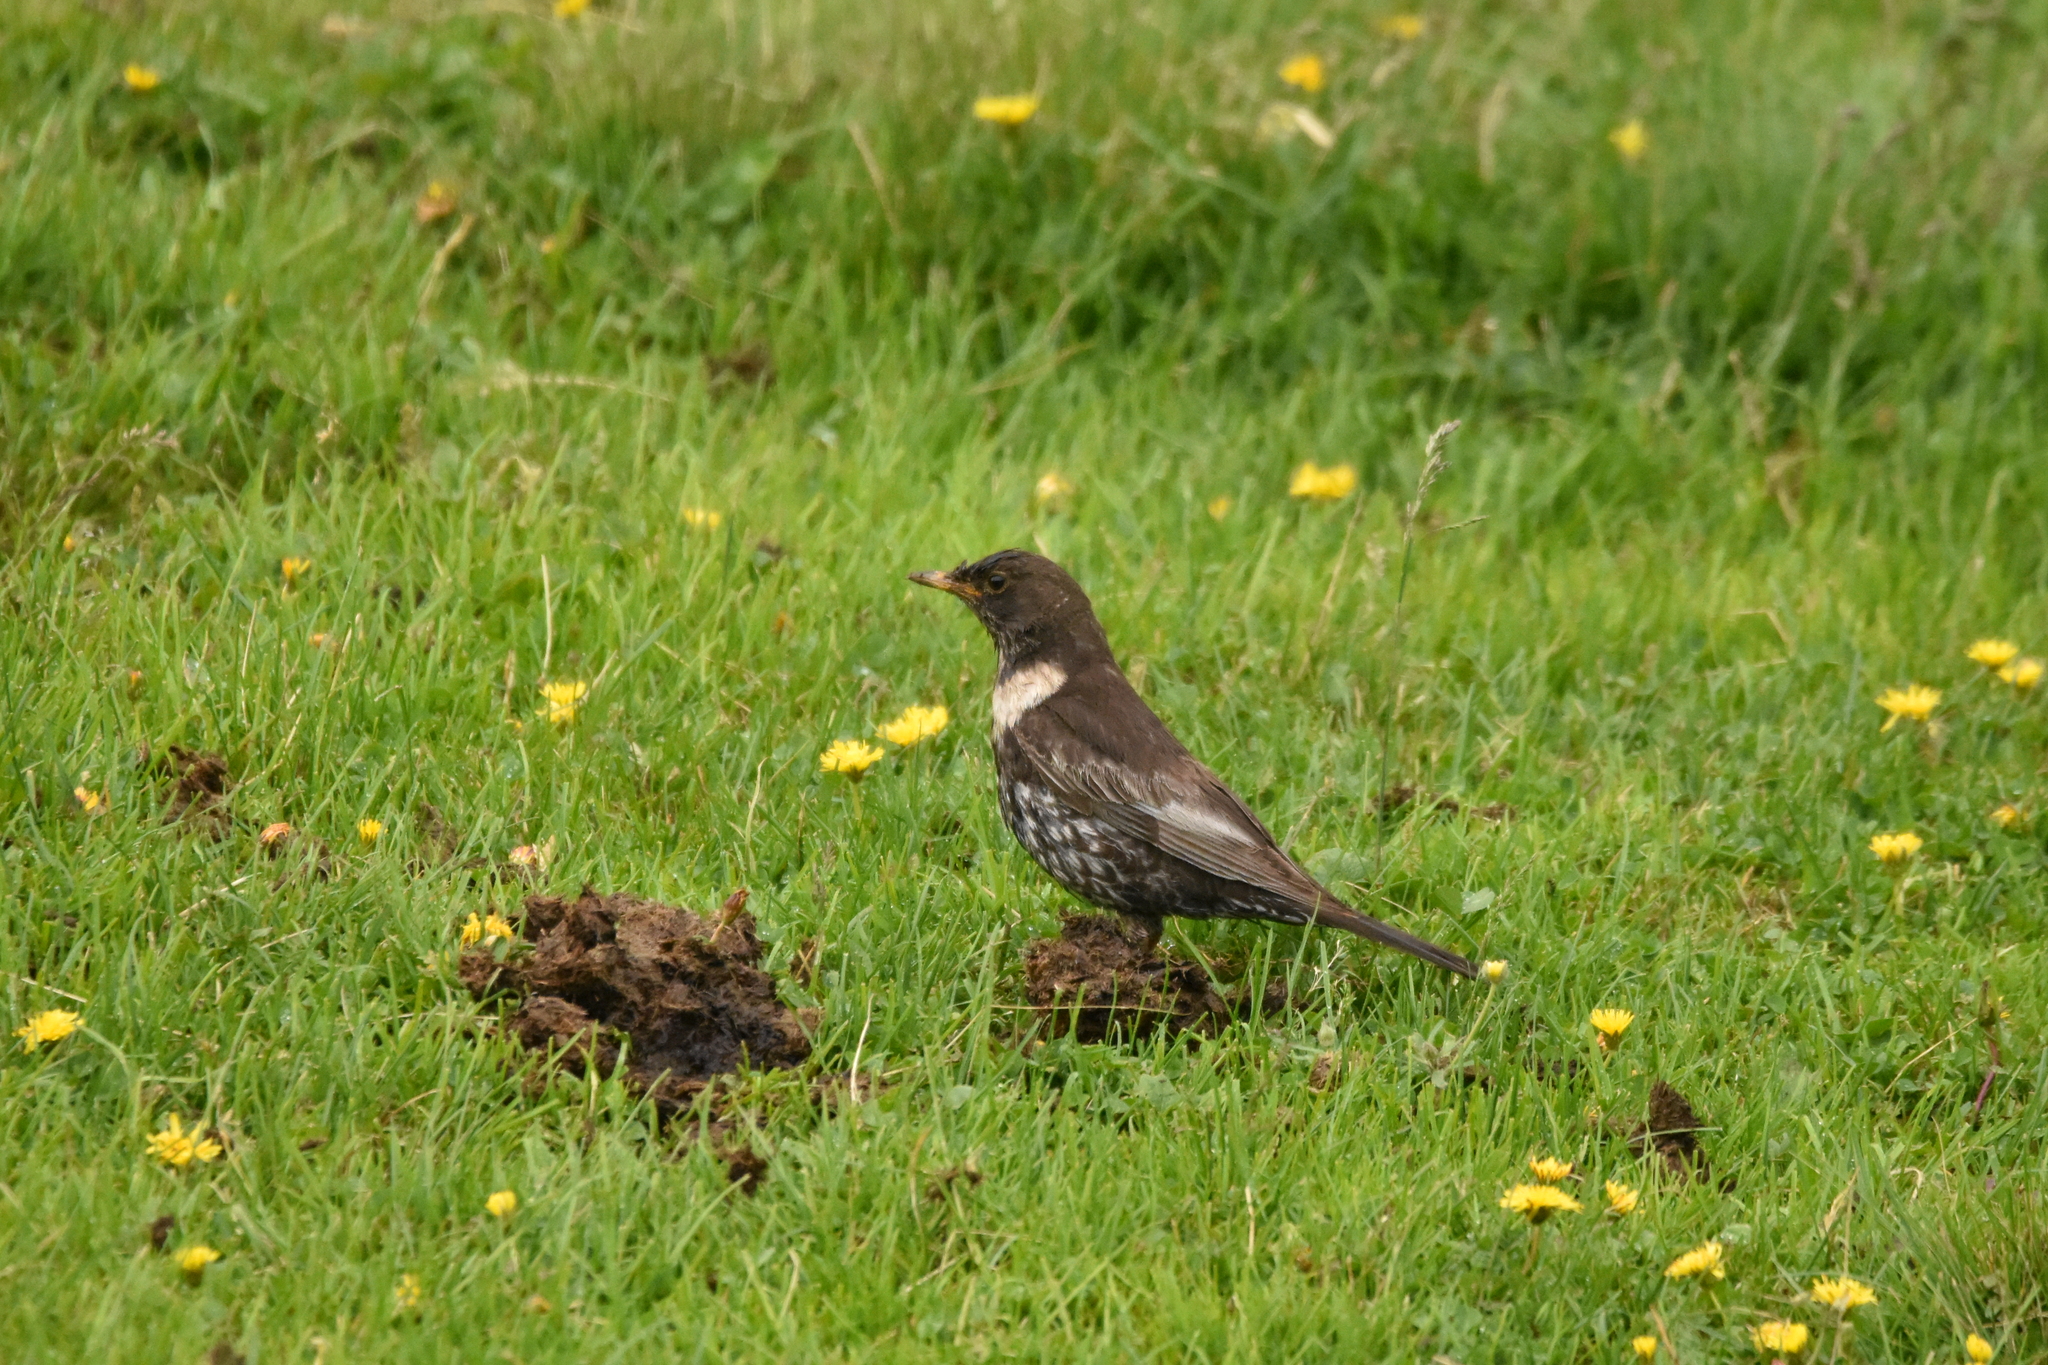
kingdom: Animalia
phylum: Chordata
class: Aves
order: Passeriformes
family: Turdidae
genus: Turdus
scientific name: Turdus torquatus
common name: Ring ouzel
